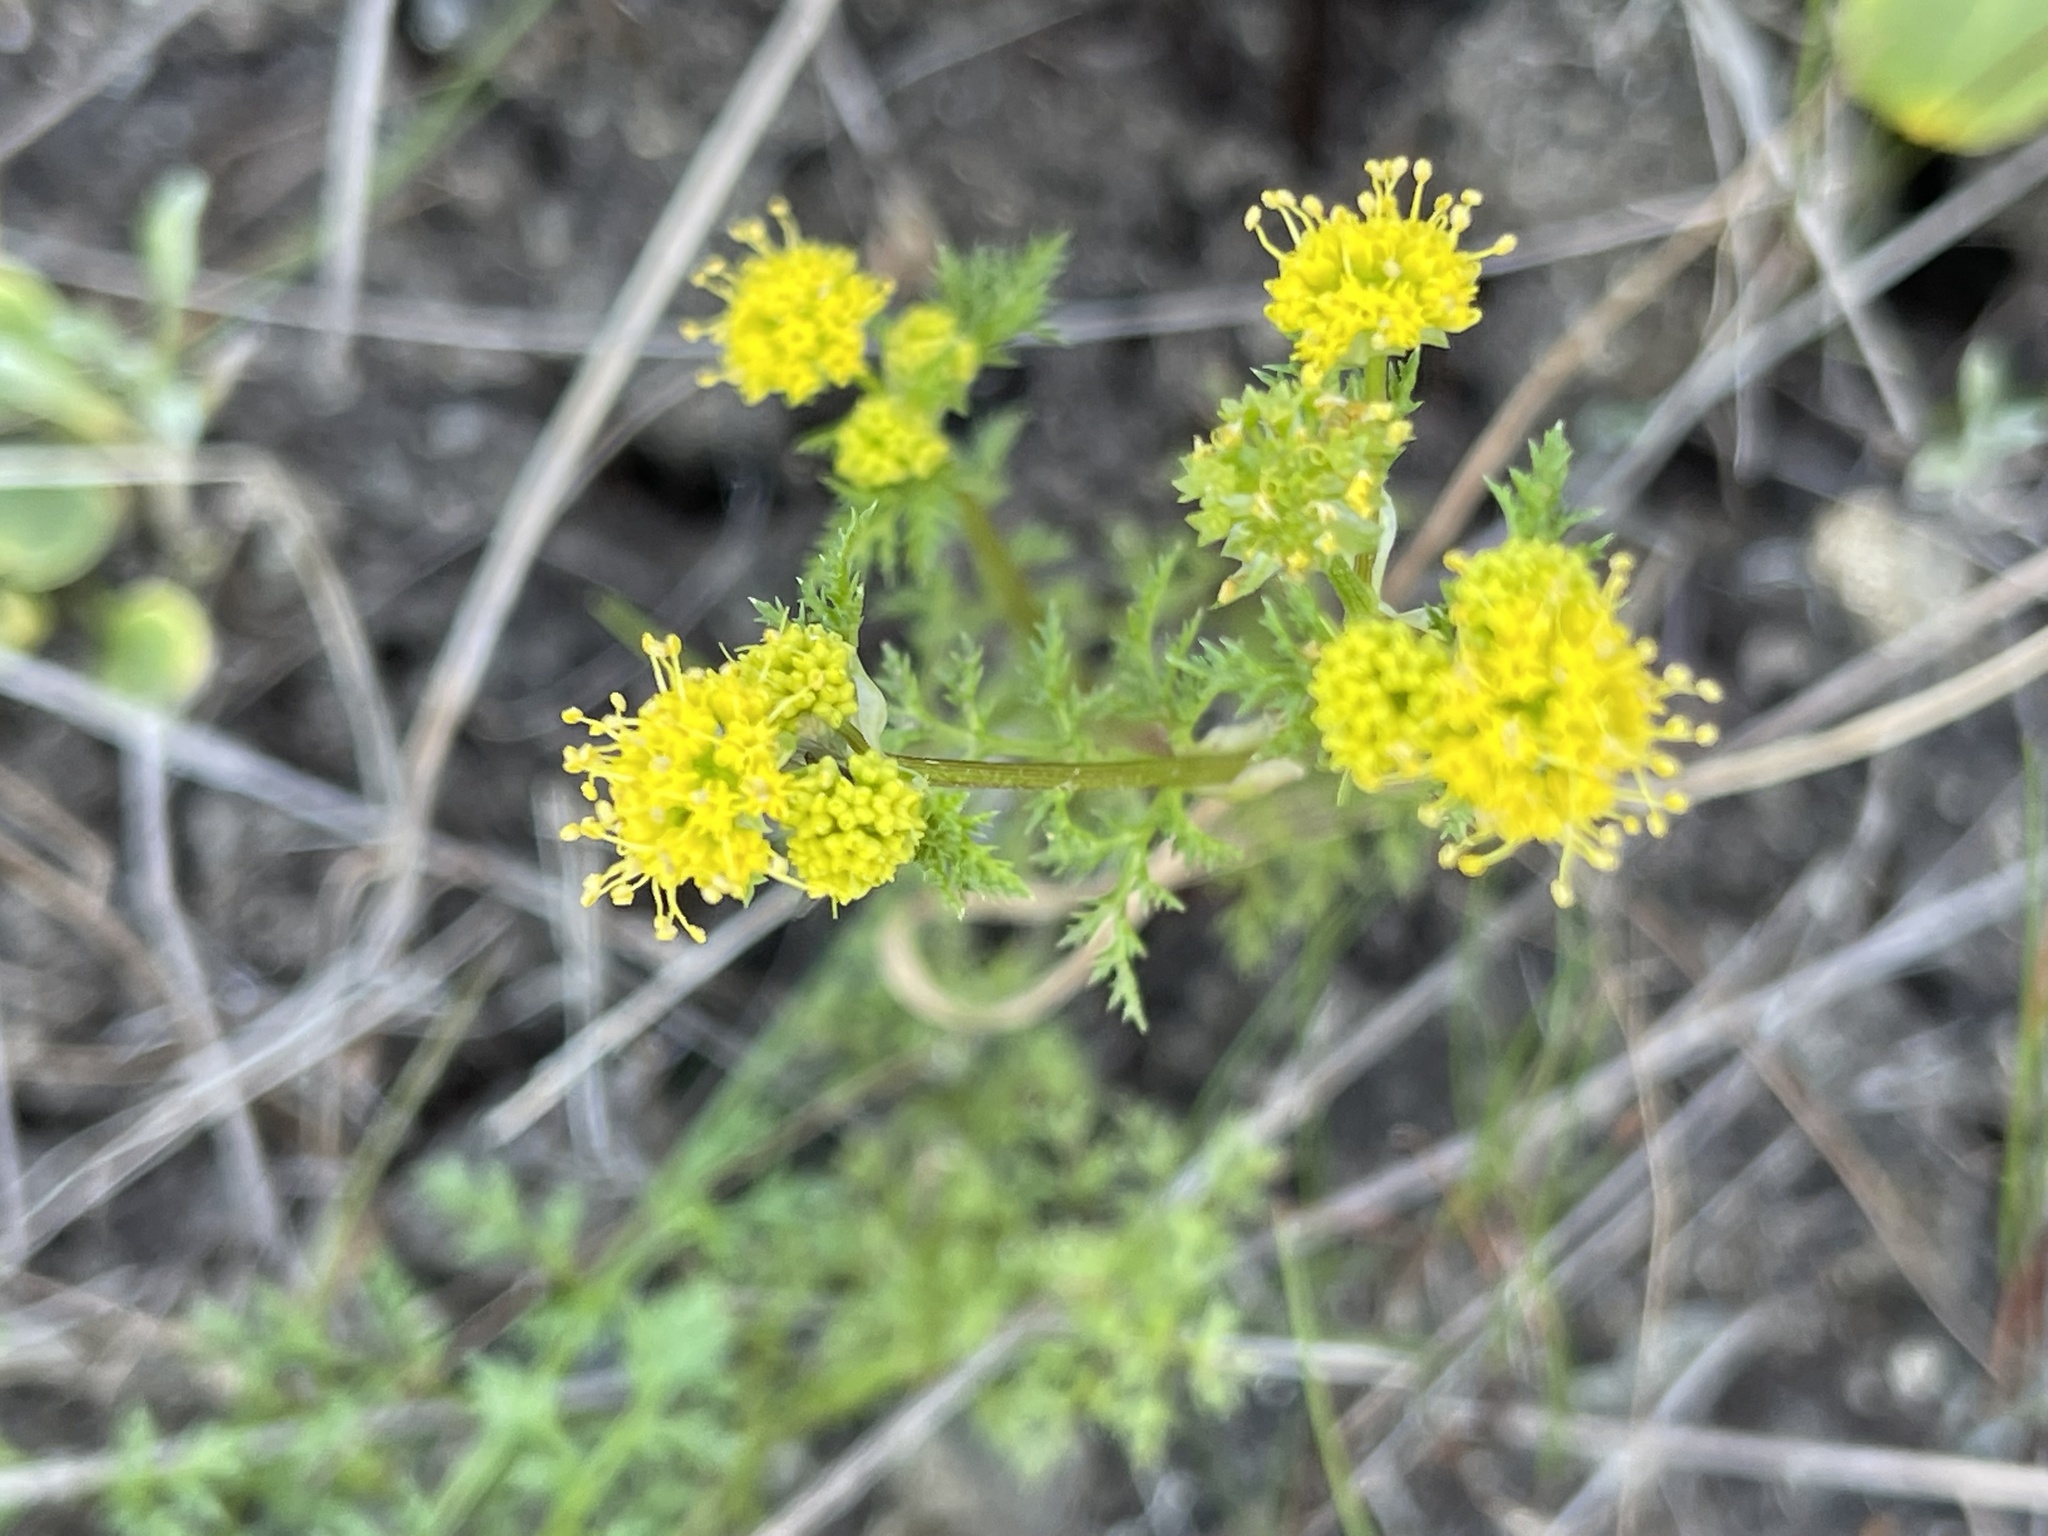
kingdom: Plantae
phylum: Tracheophyta
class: Magnoliopsida
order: Apiales
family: Apiaceae
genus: Sanicula
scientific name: Sanicula tuberosa
